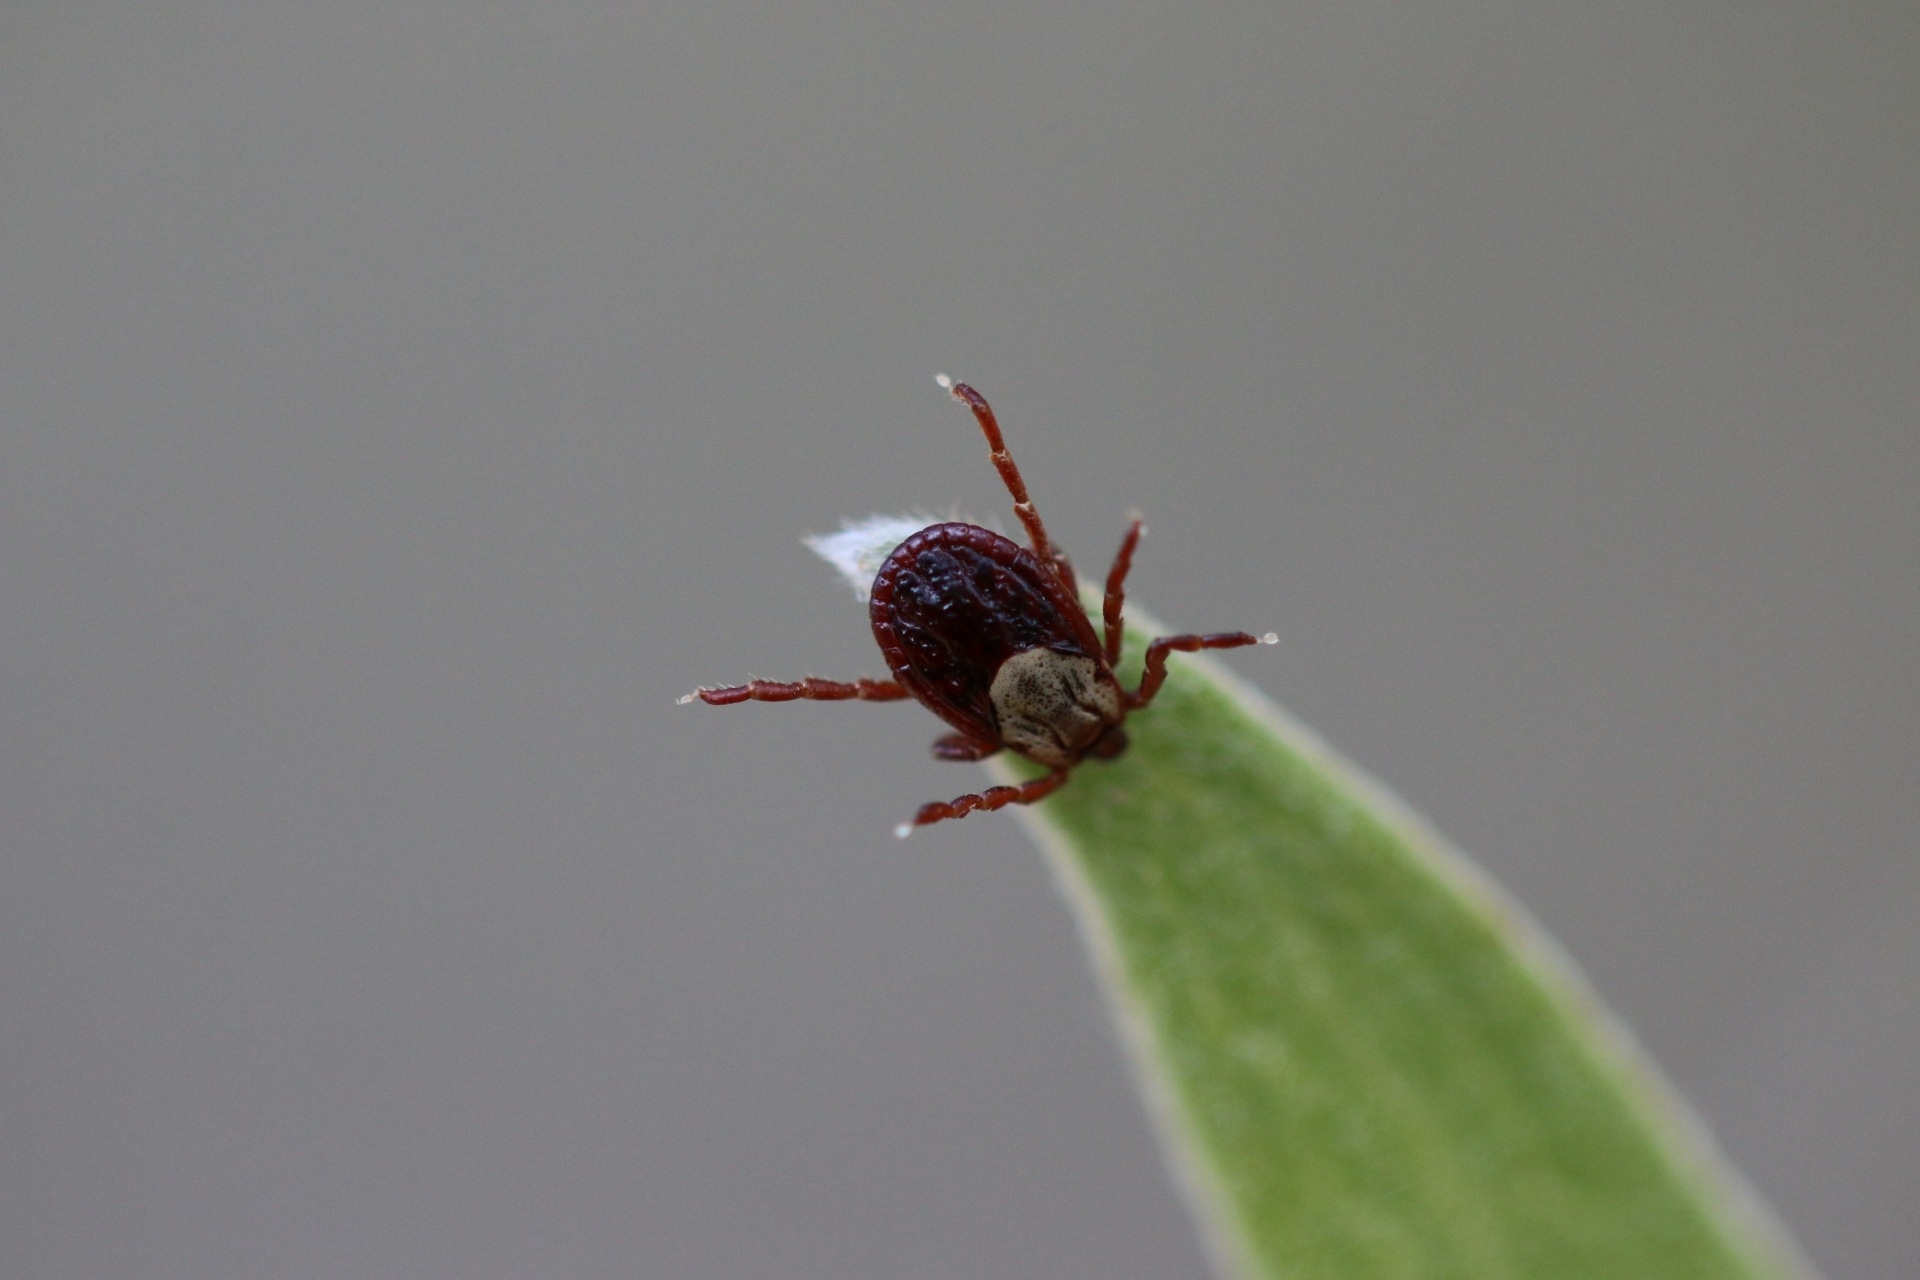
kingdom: Animalia
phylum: Arthropoda
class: Arachnida
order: Ixodida
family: Ixodidae
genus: Dermacentor
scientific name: Dermacentor andersoni
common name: Rocky mountain wood tick
